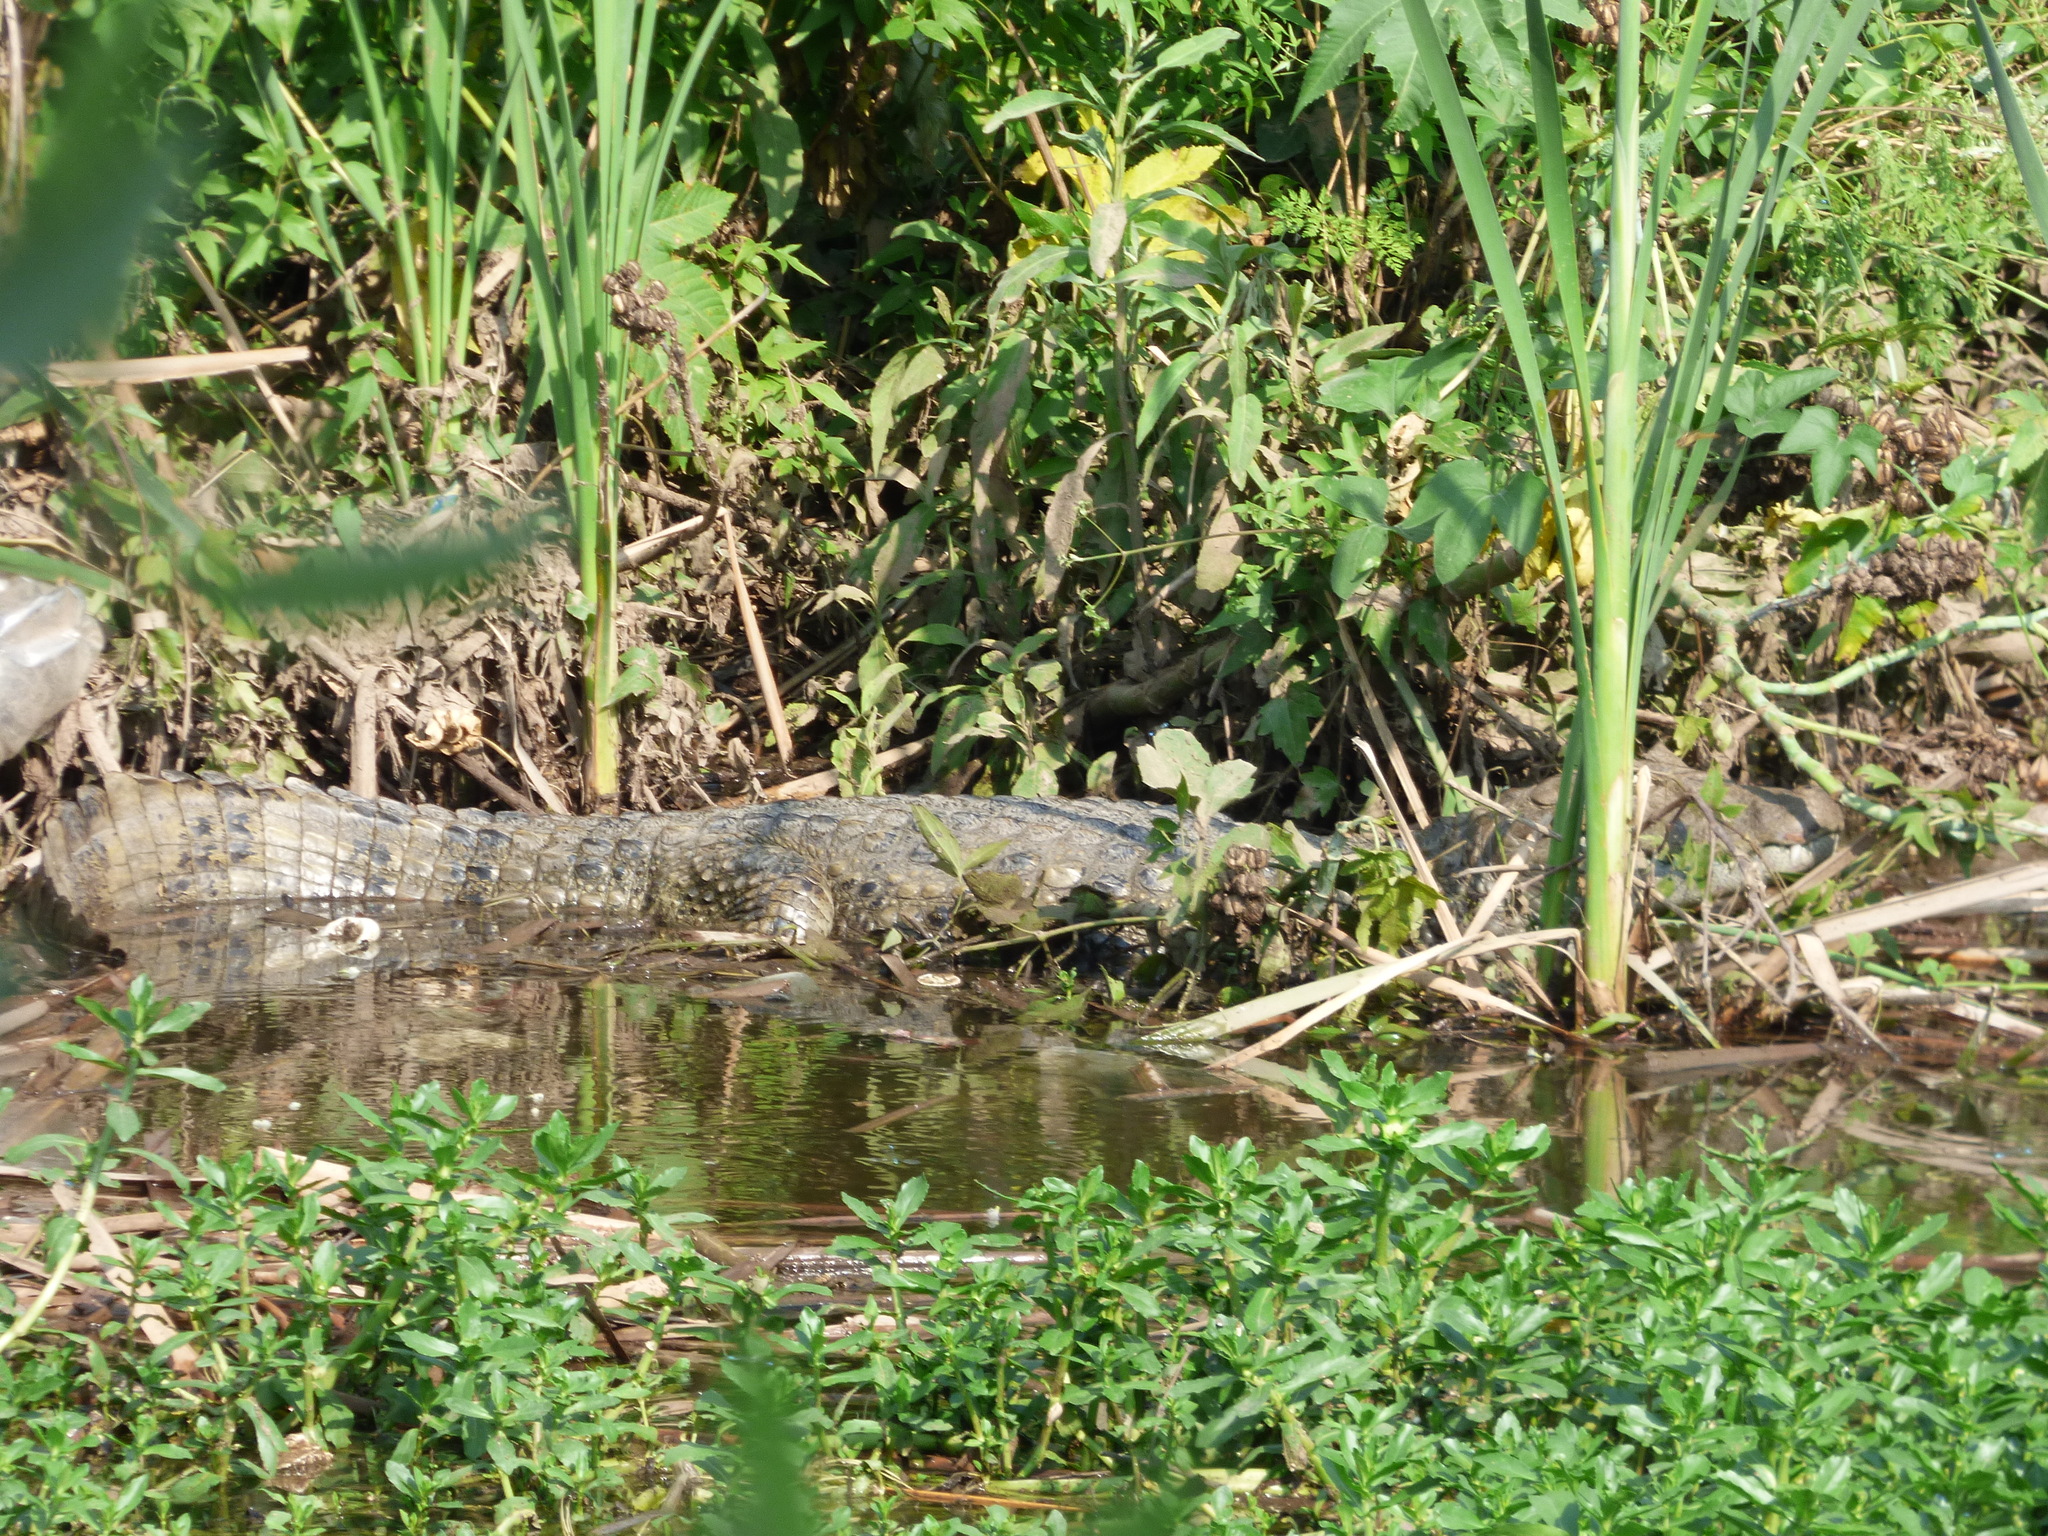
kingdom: Animalia
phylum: Chordata
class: Crocodylia
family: Alligatoridae
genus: Caiman
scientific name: Caiman latirostris
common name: Broad-snouted caiman
